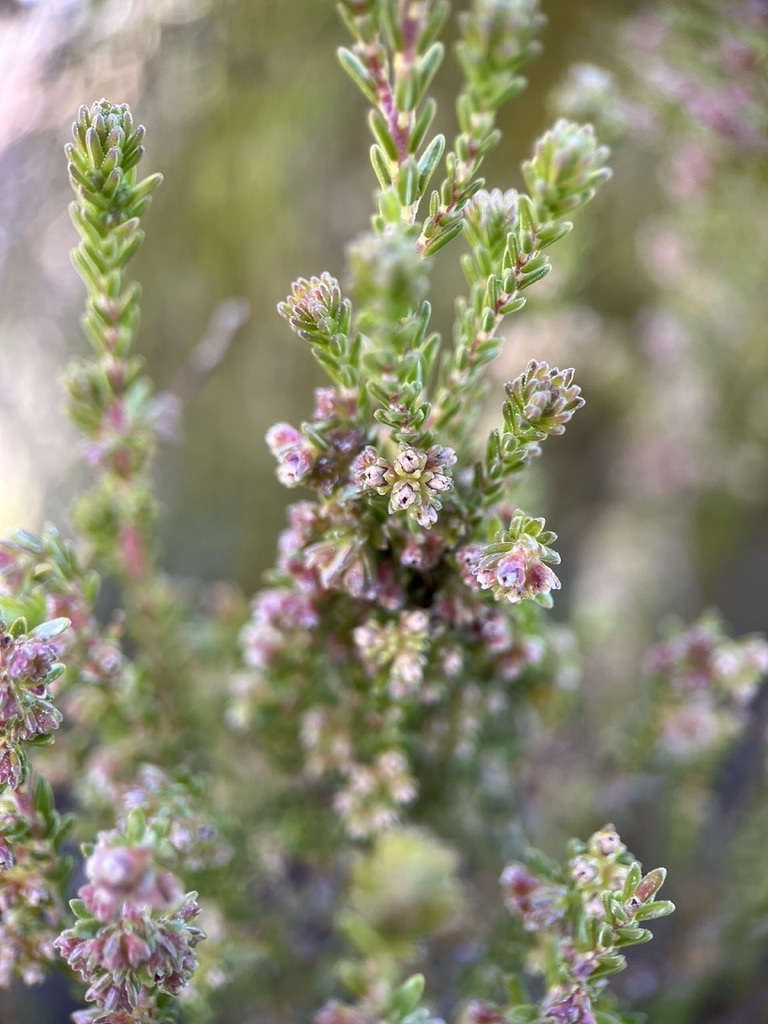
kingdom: Plantae
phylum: Tracheophyta
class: Magnoliopsida
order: Ericales
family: Ericaceae
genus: Erica
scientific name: Erica serrata
